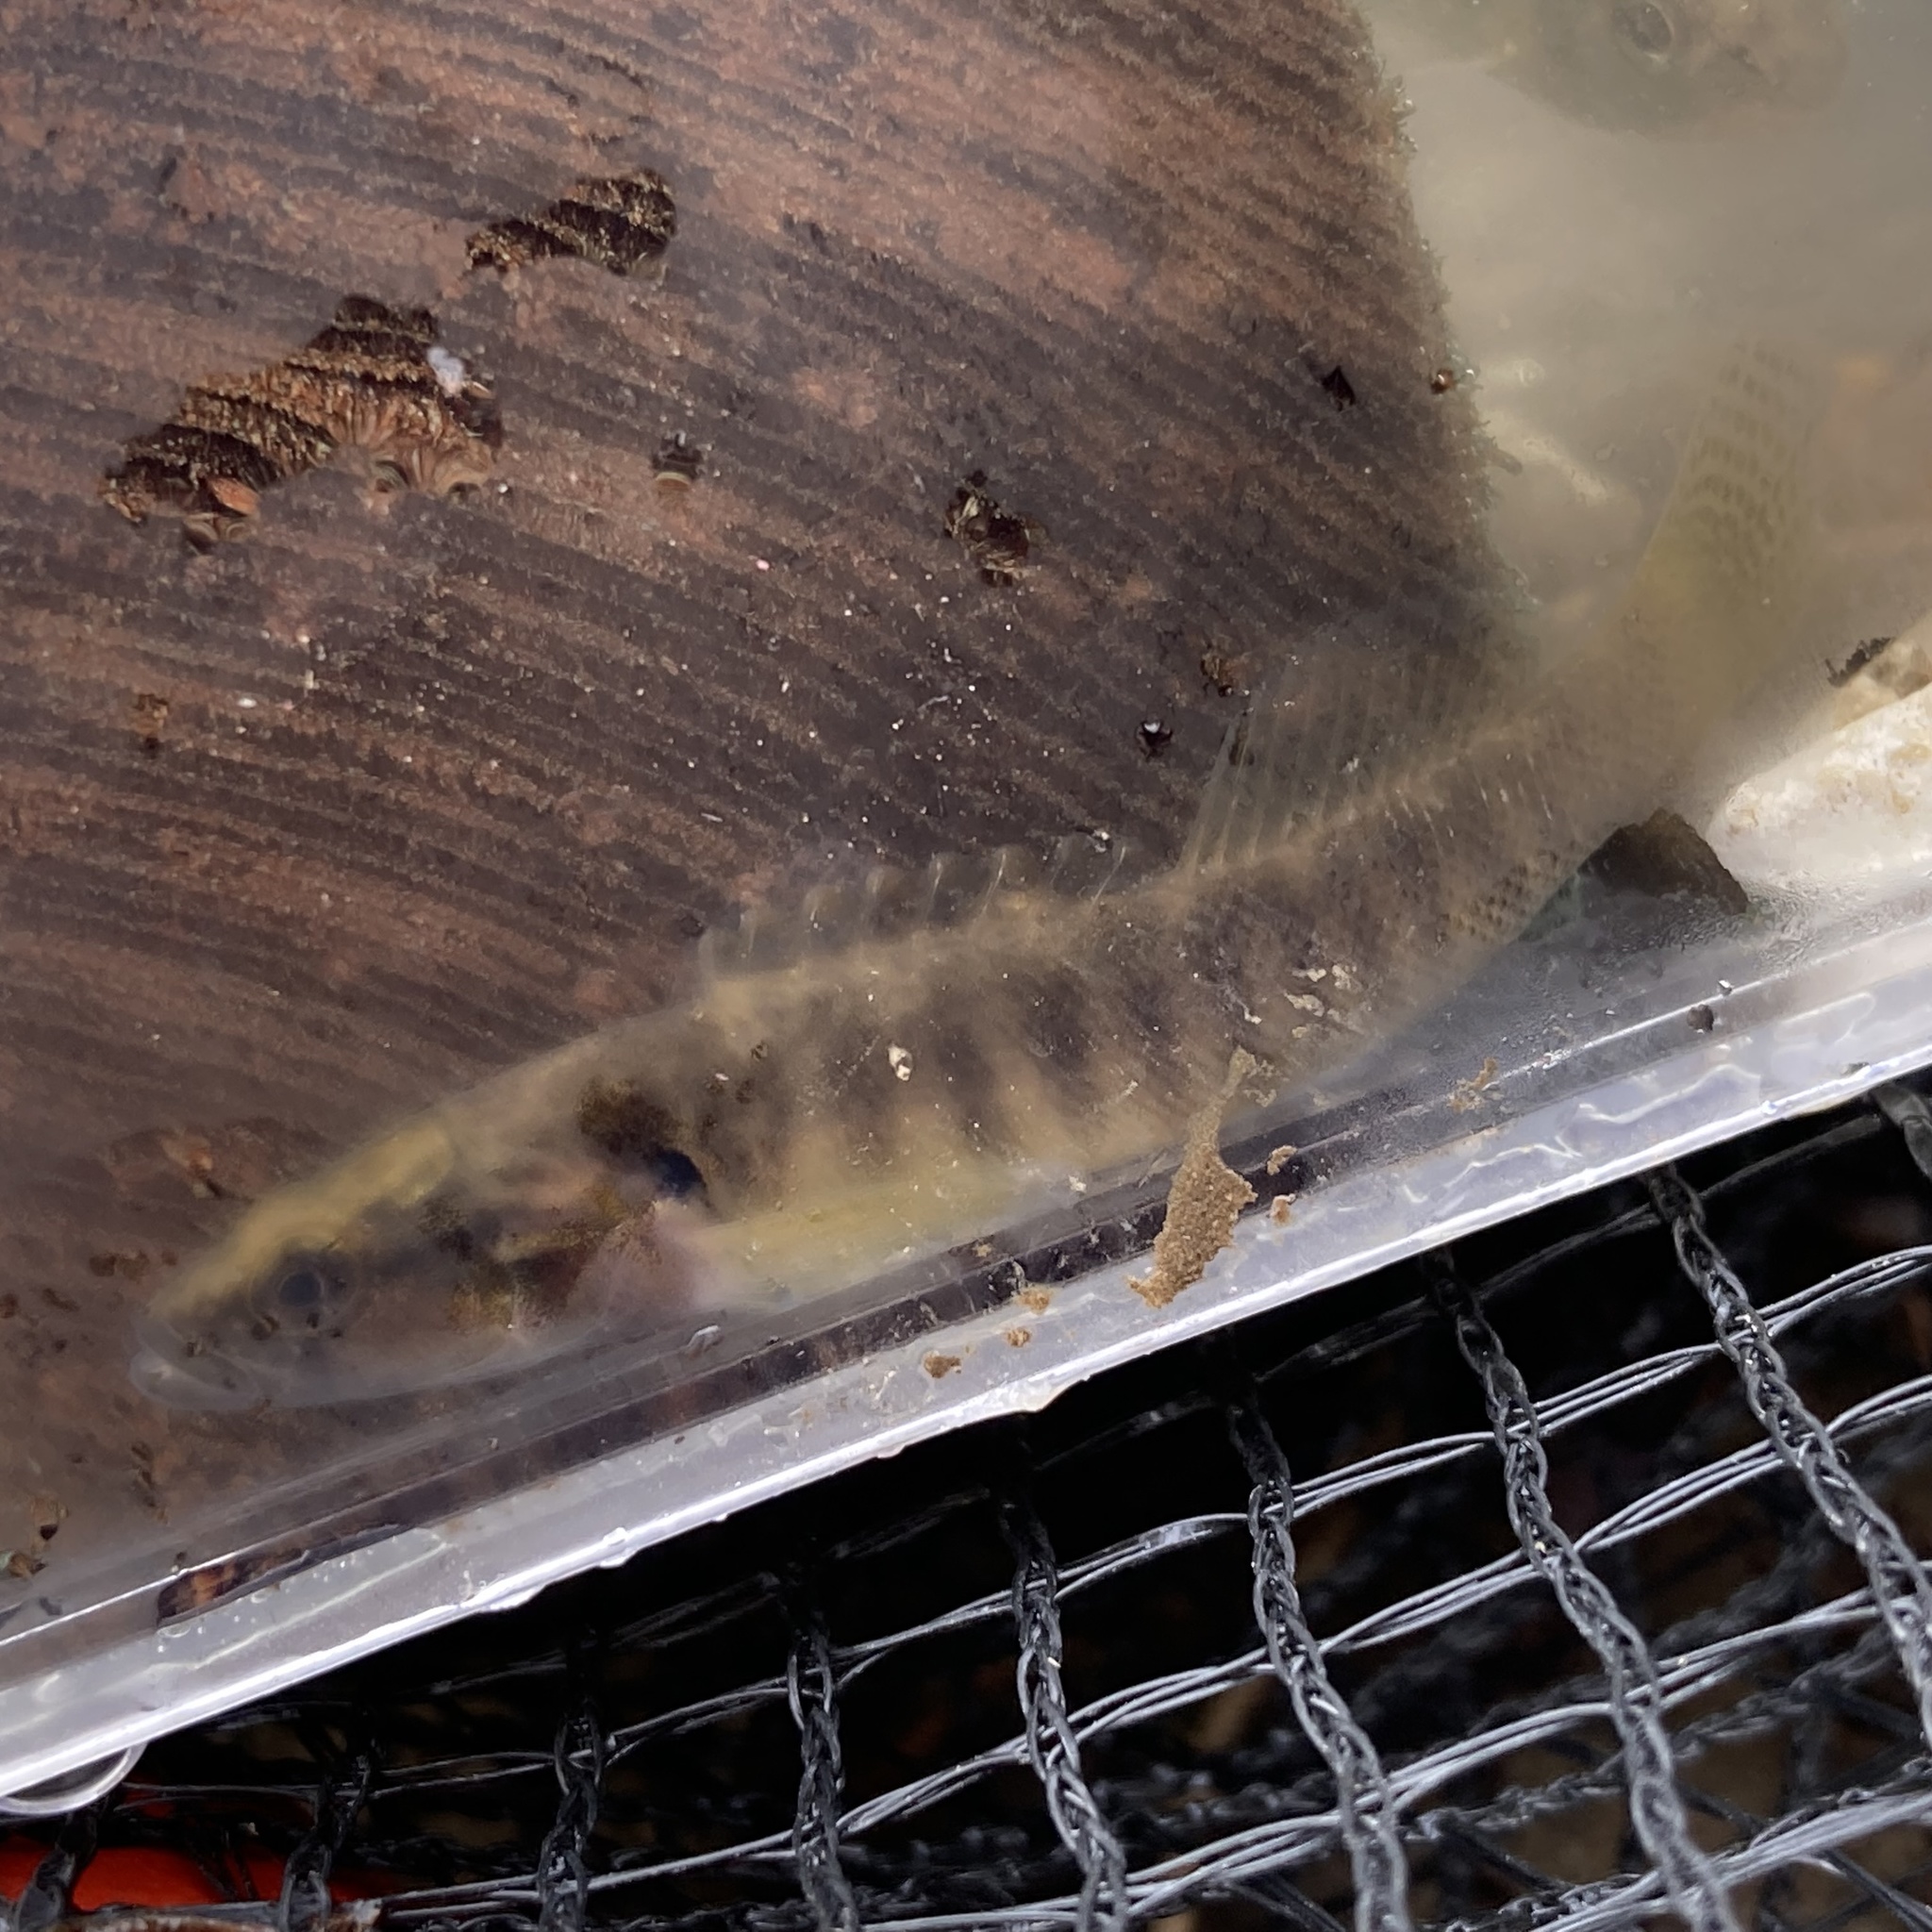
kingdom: Animalia
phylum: Chordata
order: Perciformes
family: Percidae
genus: Etheostoma
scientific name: Etheostoma flabellare
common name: Fantail darter
